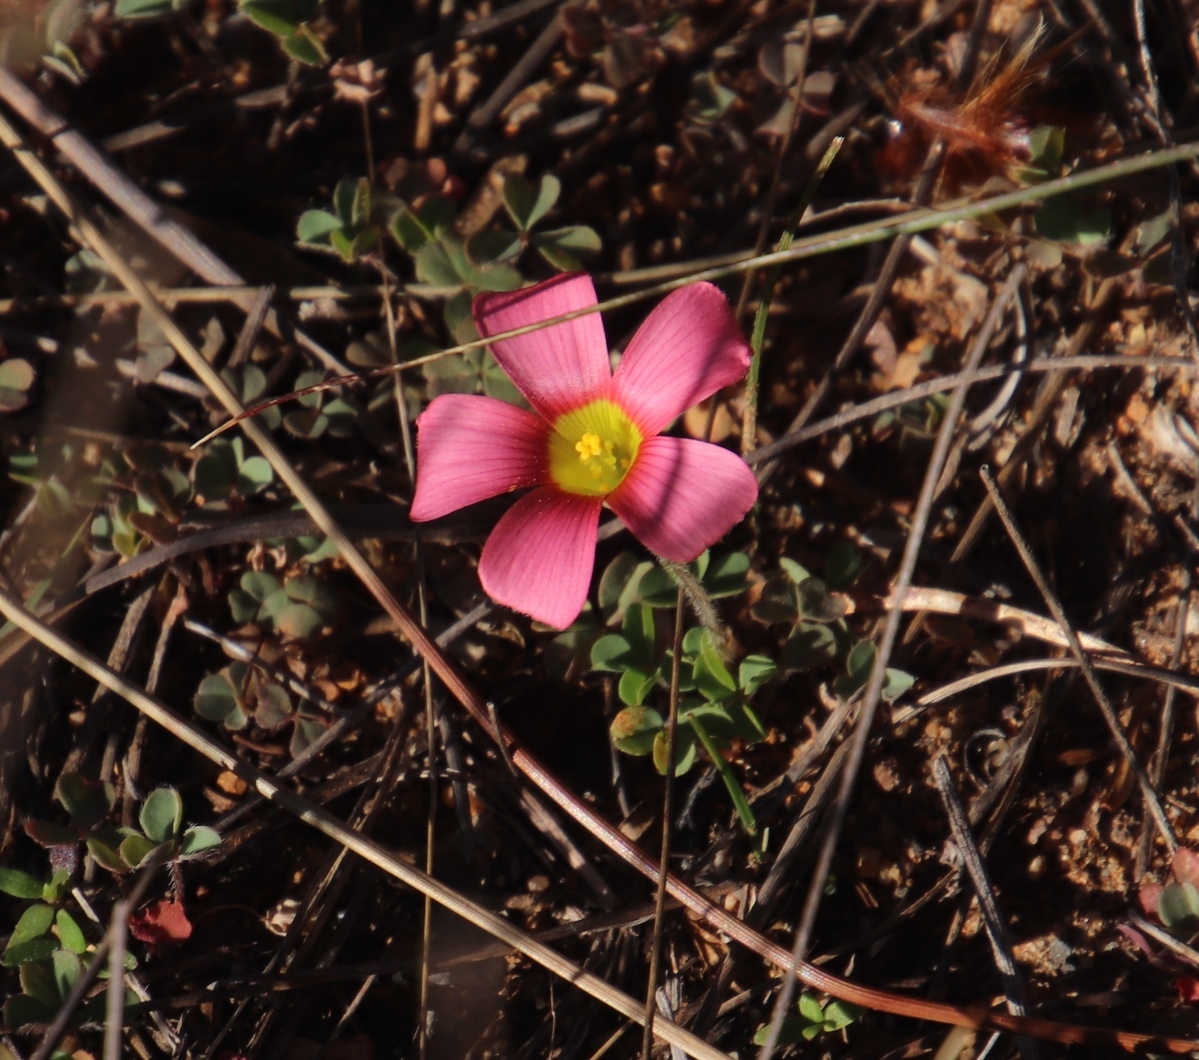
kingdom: Plantae
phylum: Tracheophyta
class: Magnoliopsida
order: Oxalidales
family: Oxalidaceae
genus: Oxalis
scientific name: Oxalis obtusa
